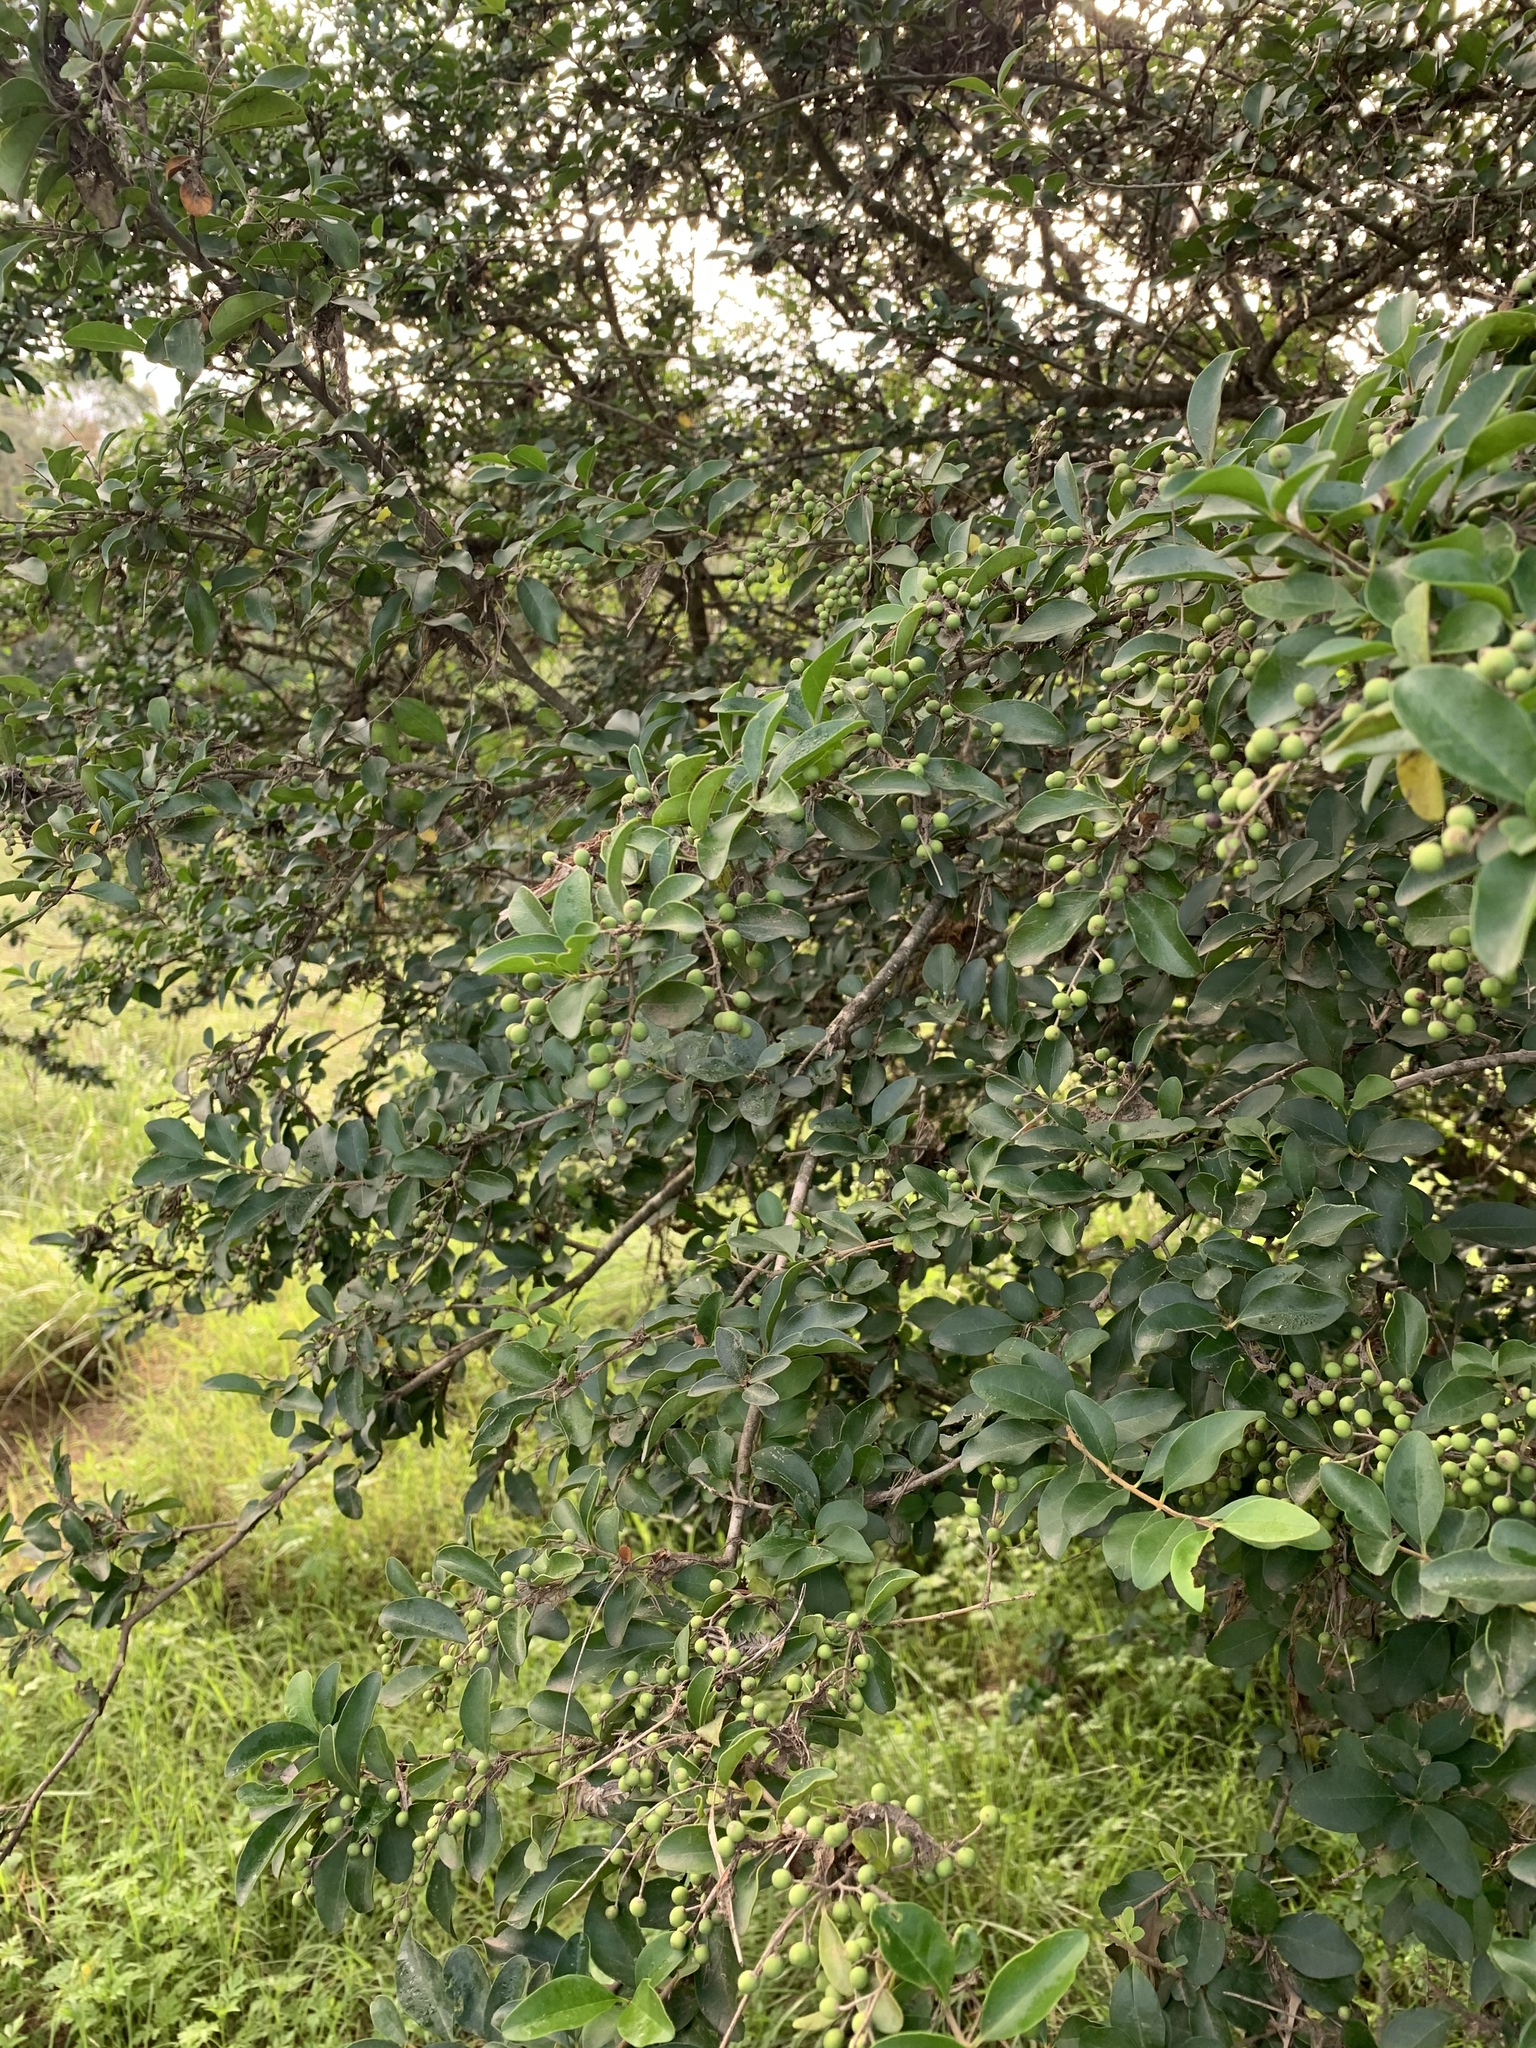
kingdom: Plantae
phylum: Tracheophyta
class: Magnoliopsida
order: Lamiales
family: Oleaceae
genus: Ligustrum
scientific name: Ligustrum sinense
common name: Chinese privet
